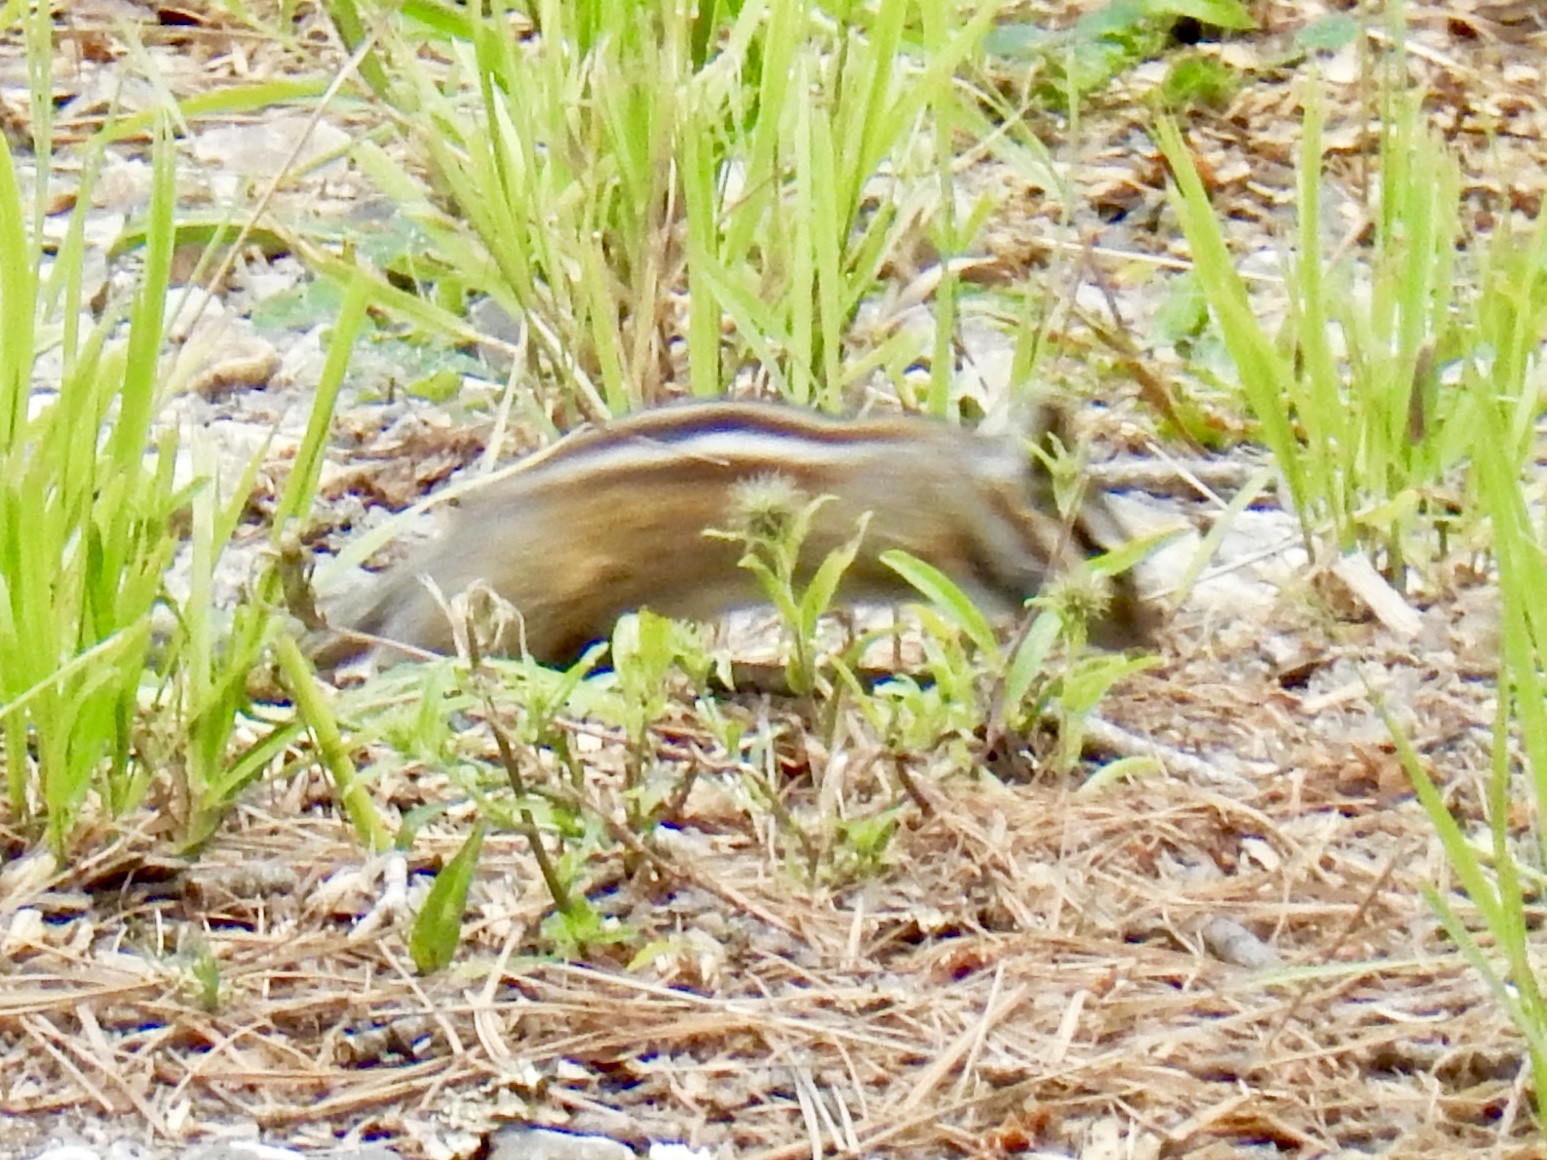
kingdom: Animalia
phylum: Chordata
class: Mammalia
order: Rodentia
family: Sciuridae
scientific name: Sciuridae
